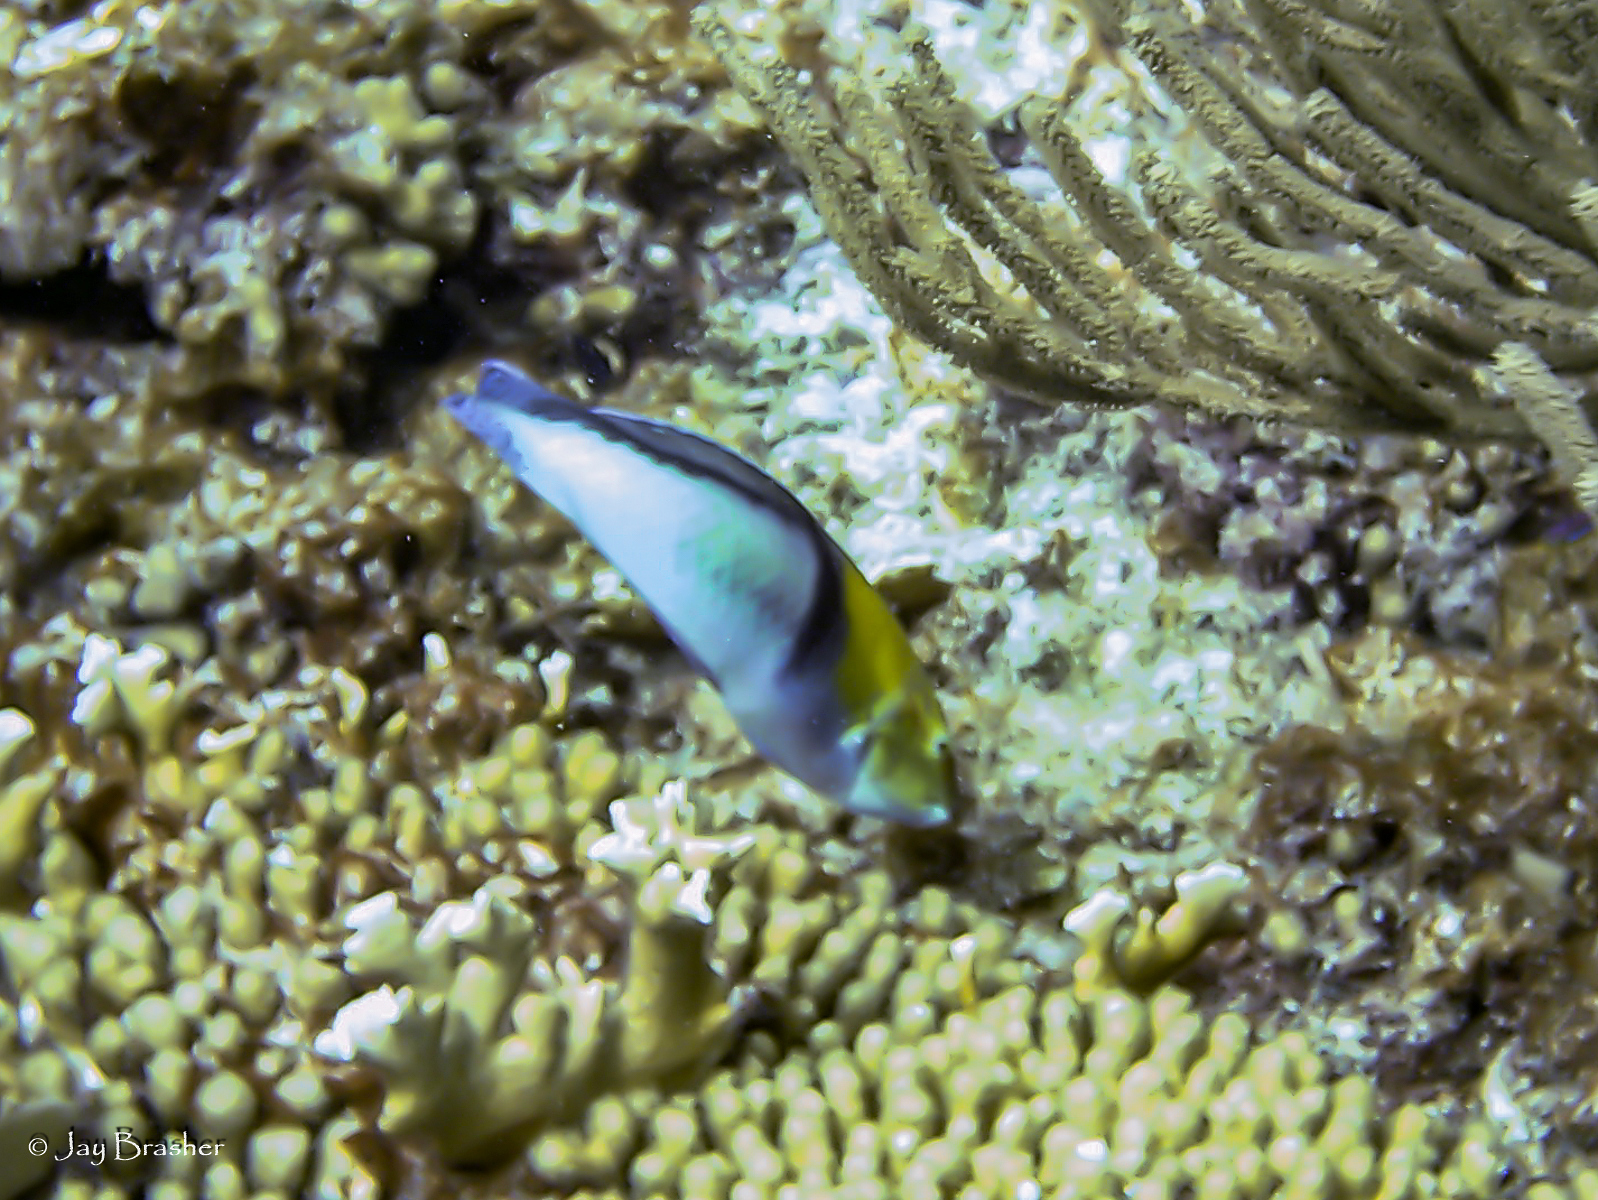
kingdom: Animalia
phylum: Chordata
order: Perciformes
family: Labridae
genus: Halichoeres
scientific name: Halichoeres garnoti
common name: Yellowhead wrasse
